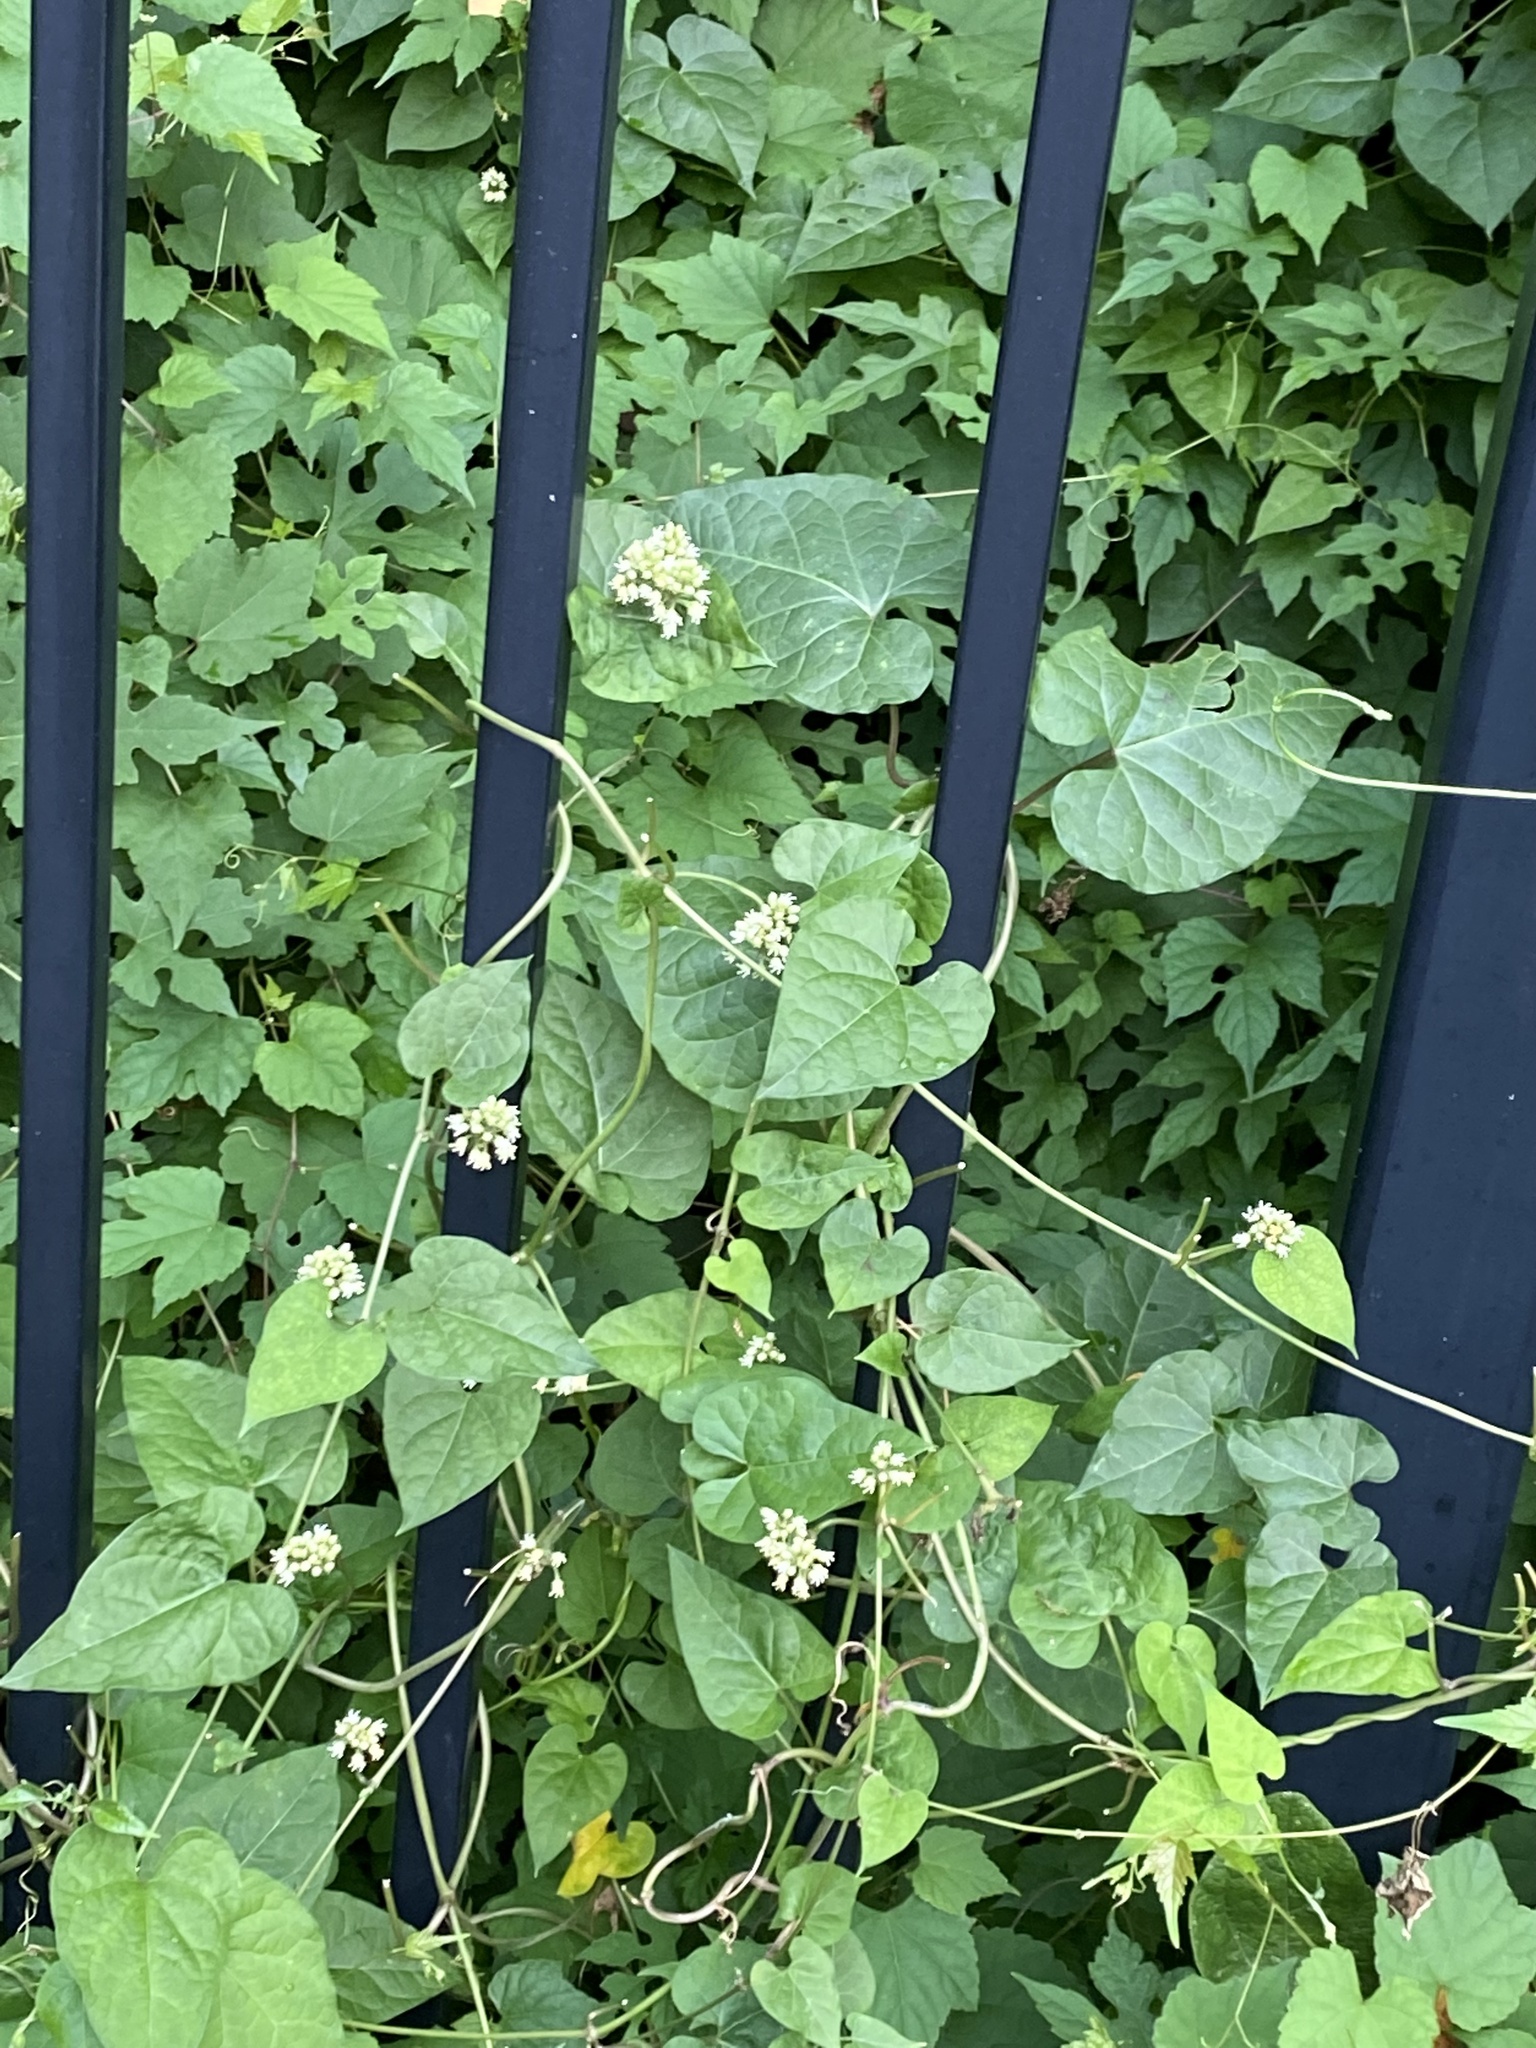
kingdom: Plantae
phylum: Tracheophyta
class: Magnoliopsida
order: Gentianales
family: Apocynaceae
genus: Cynanchum
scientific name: Cynanchum laeve
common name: Sandvine
